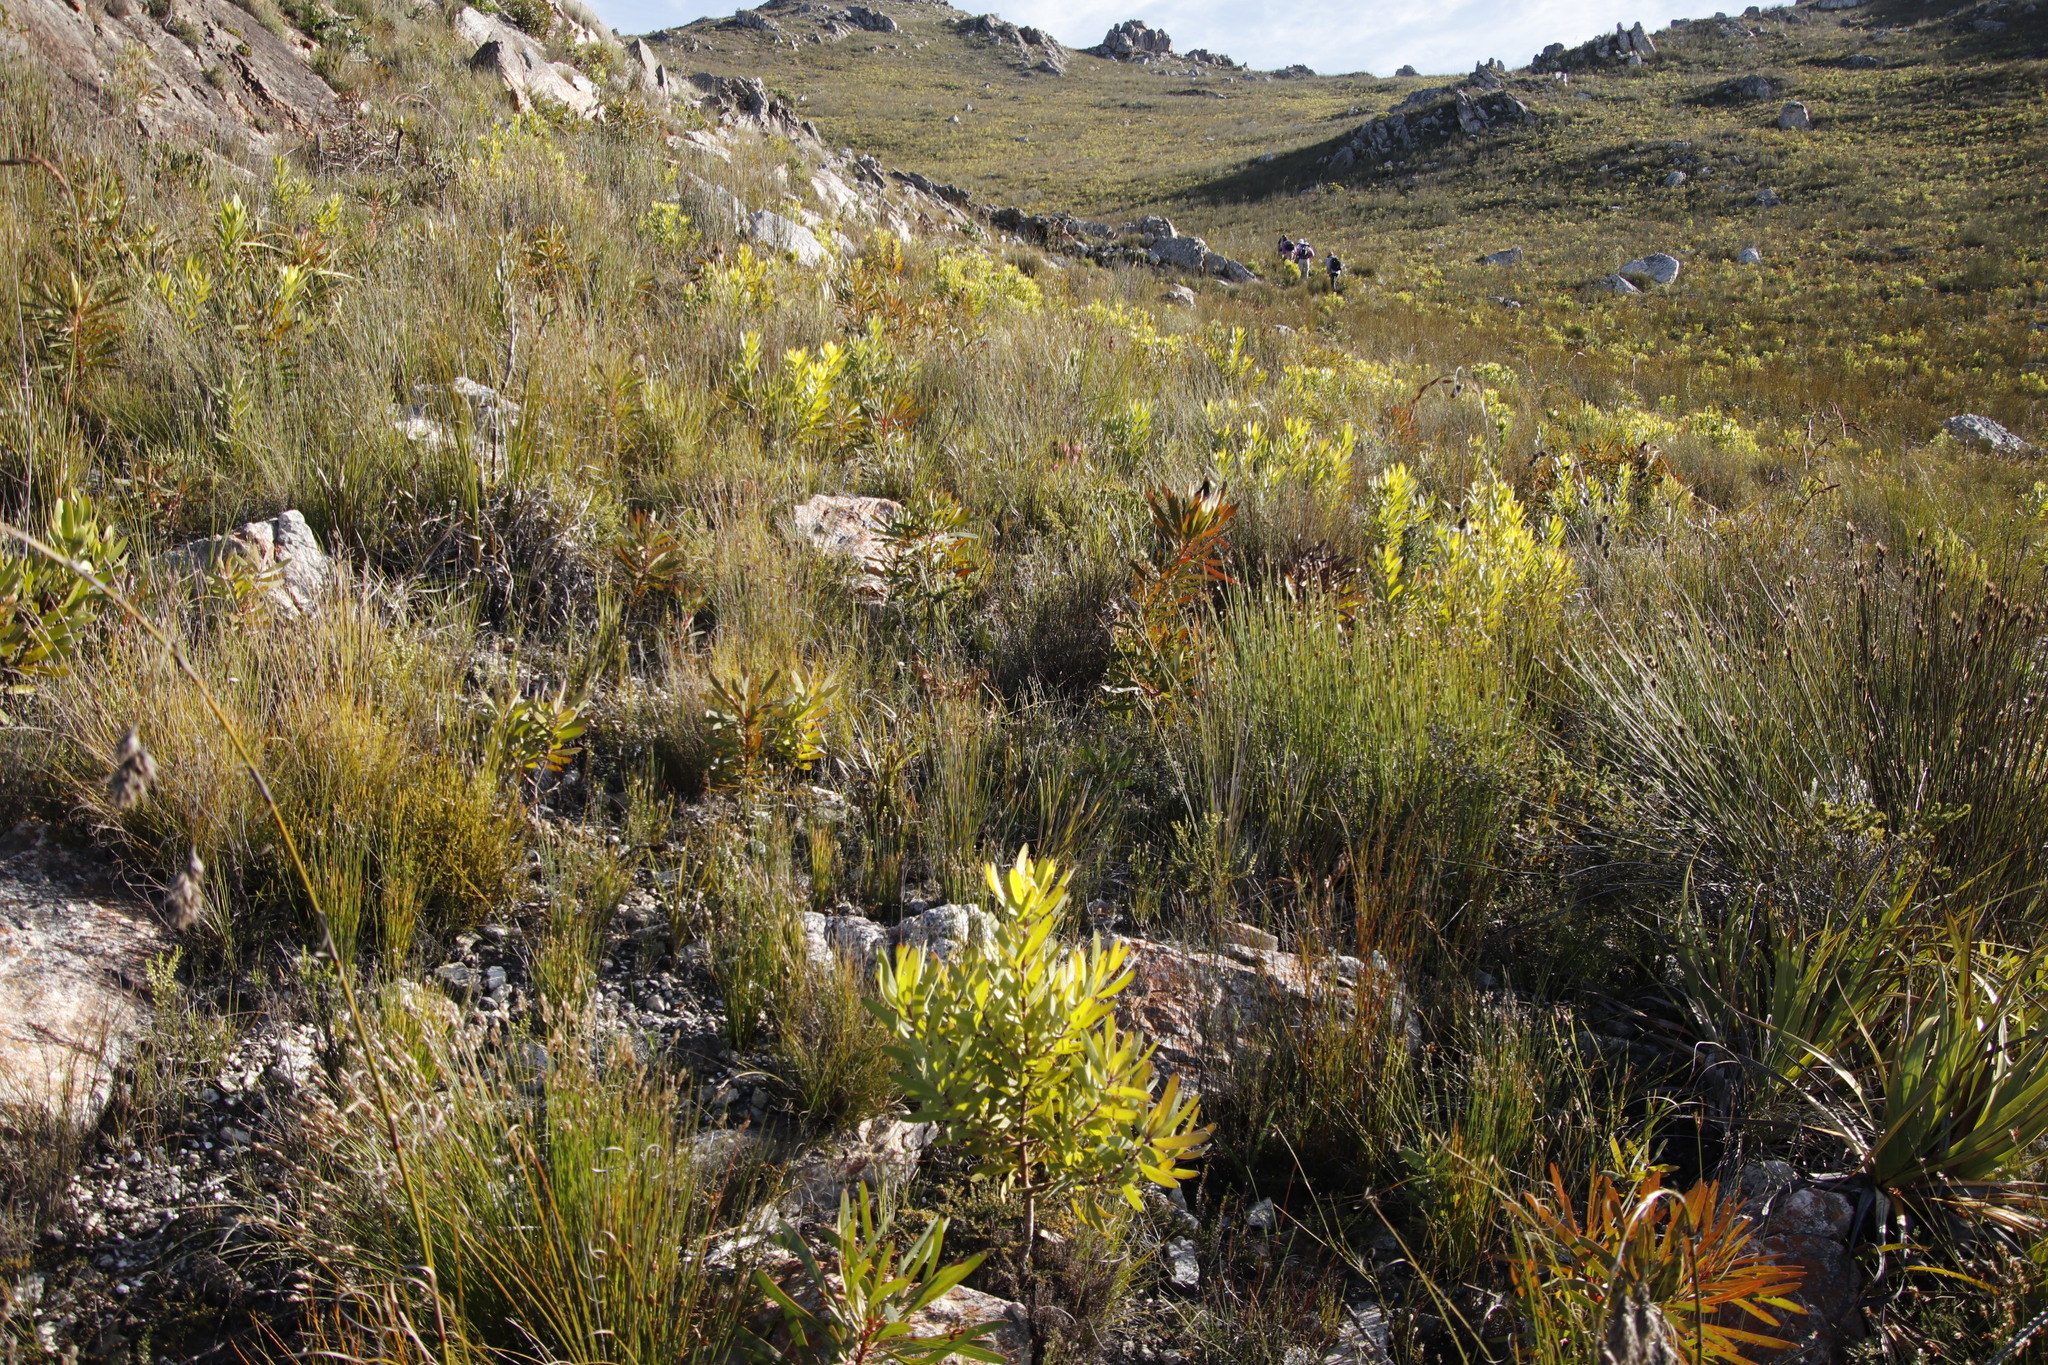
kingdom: Plantae
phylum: Tracheophyta
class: Magnoliopsida
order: Proteales
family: Proteaceae
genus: Protea
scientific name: Protea longifolia
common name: Long-leaf sugarbush
